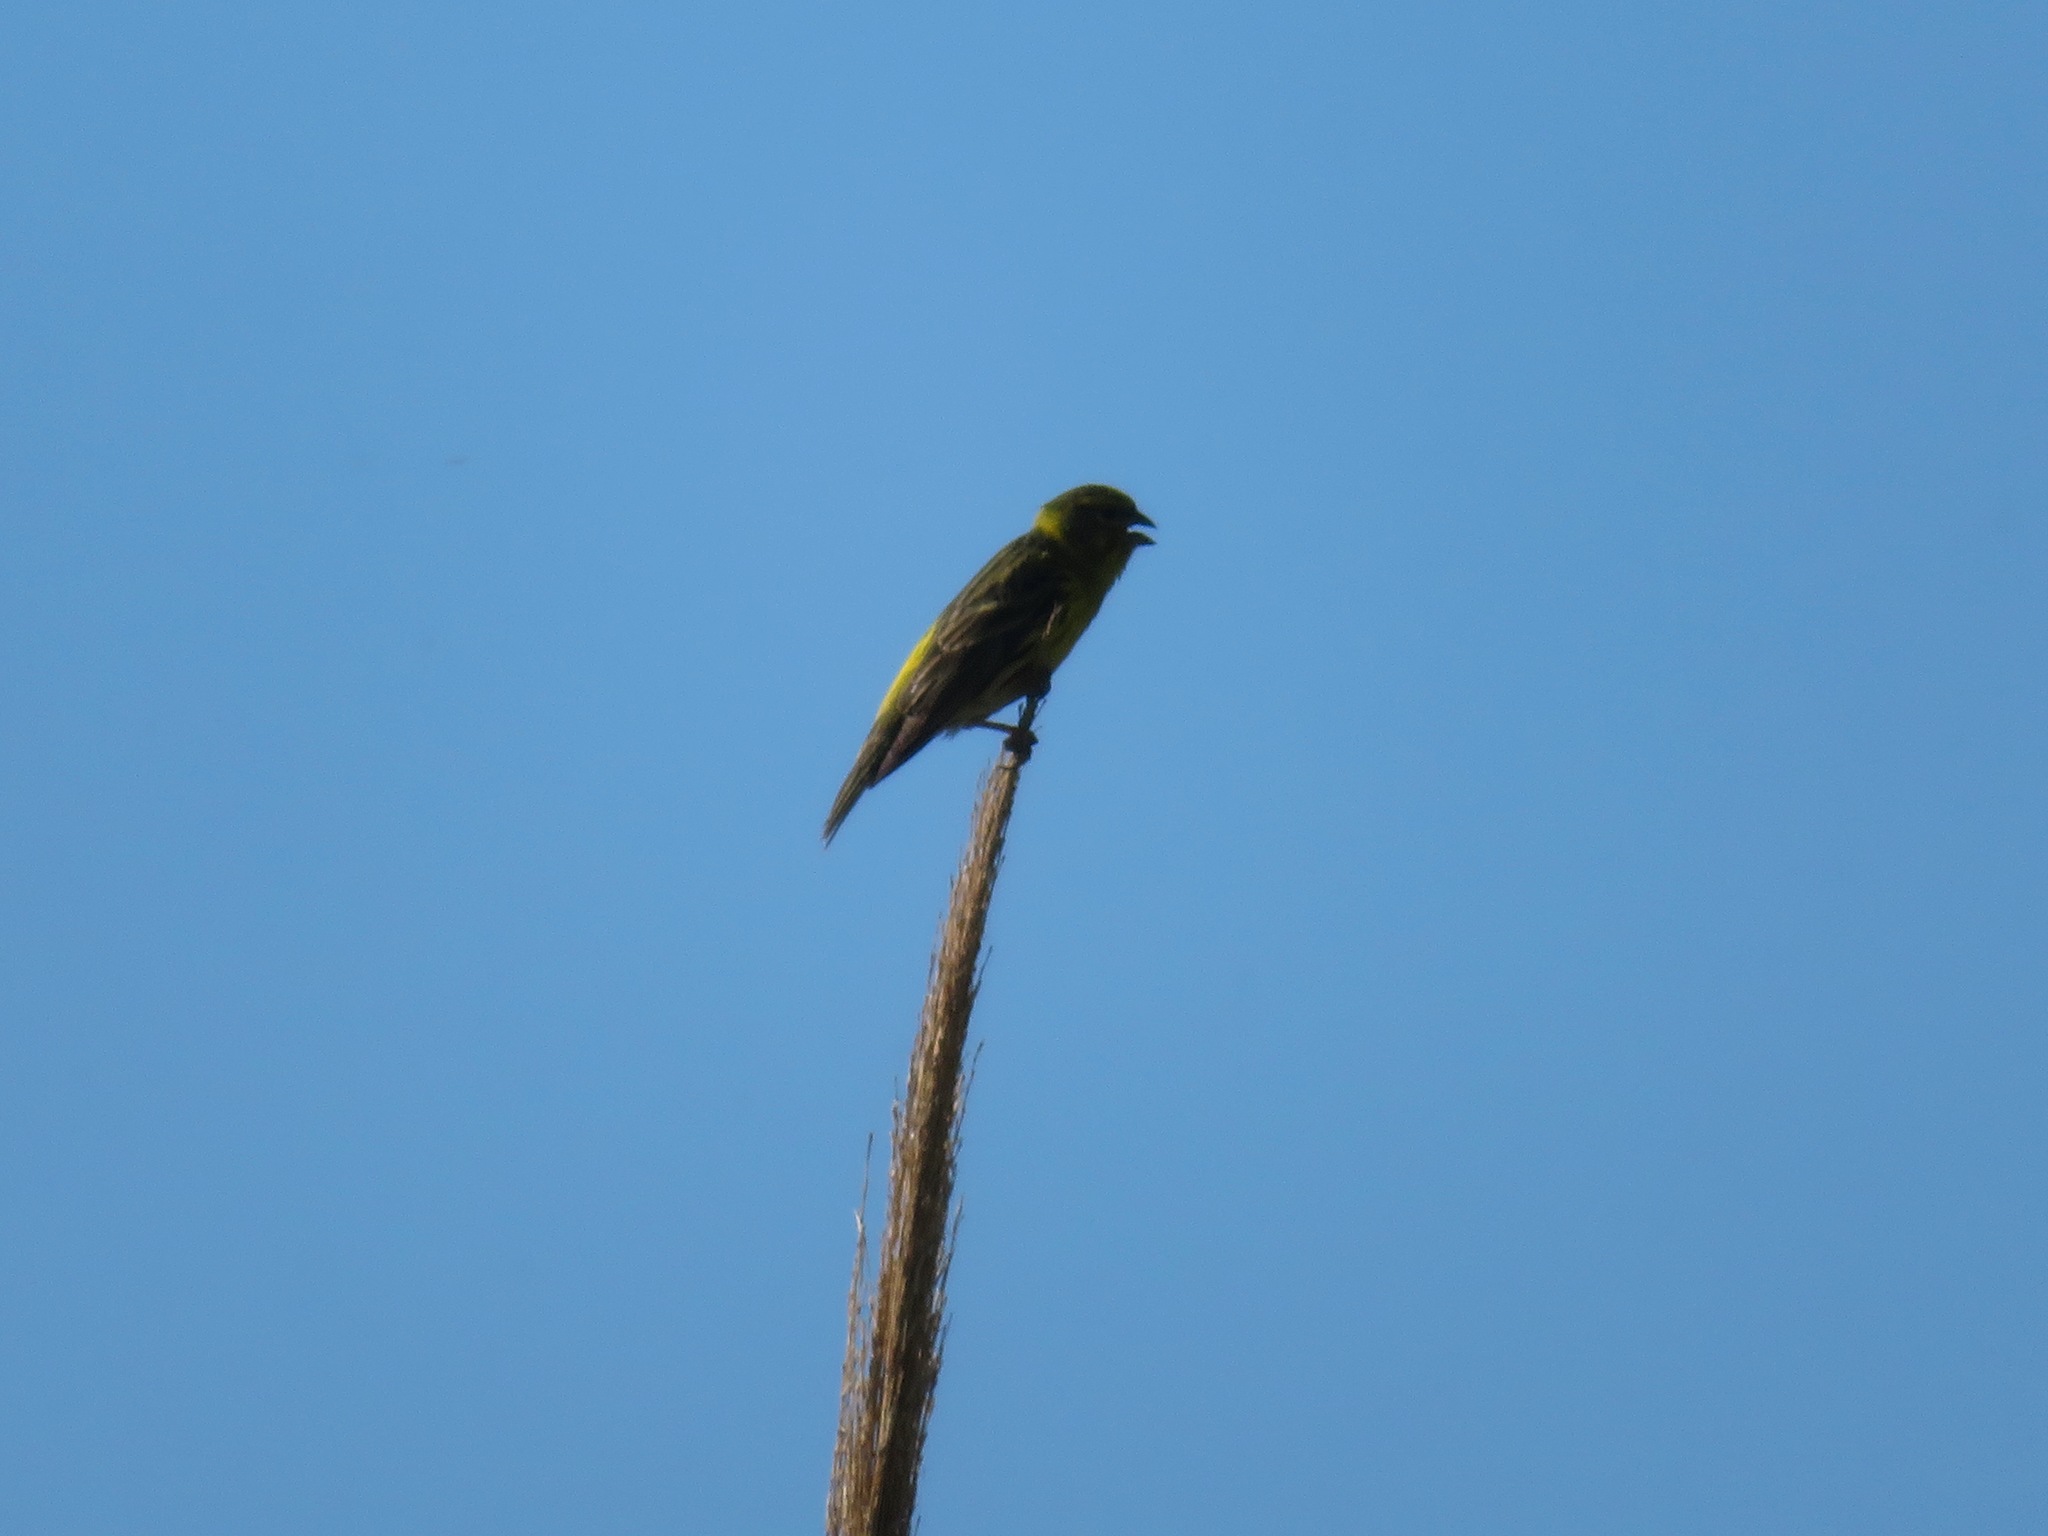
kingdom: Animalia
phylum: Chordata
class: Aves
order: Passeriformes
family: Fringillidae
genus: Serinus
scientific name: Serinus serinus
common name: European serin
